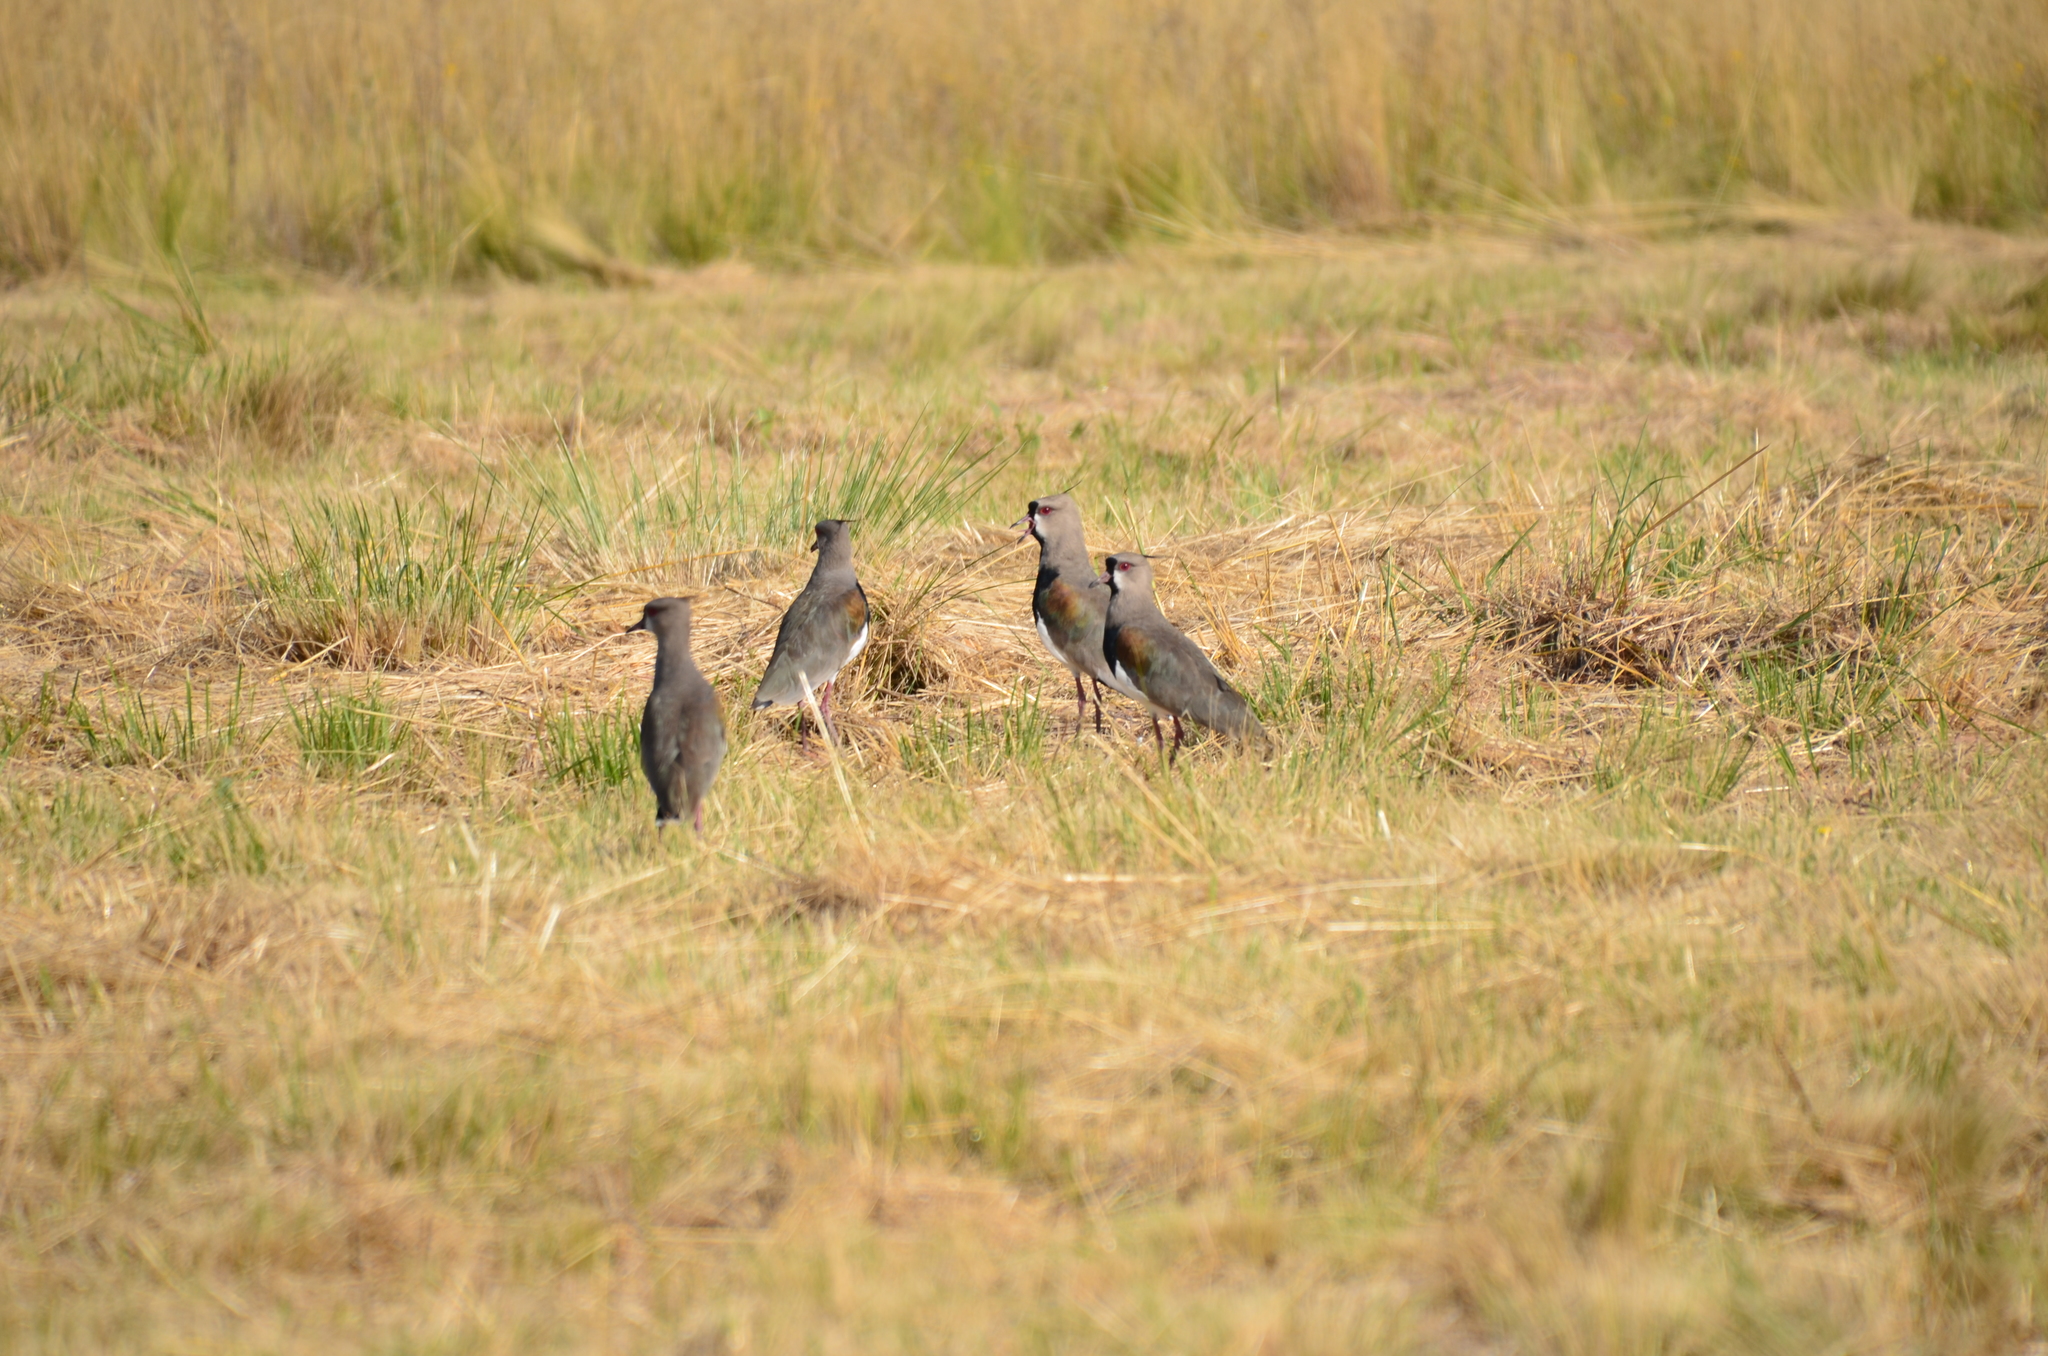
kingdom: Animalia
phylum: Chordata
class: Aves
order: Charadriiformes
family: Charadriidae
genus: Vanellus
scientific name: Vanellus chilensis
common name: Southern lapwing
